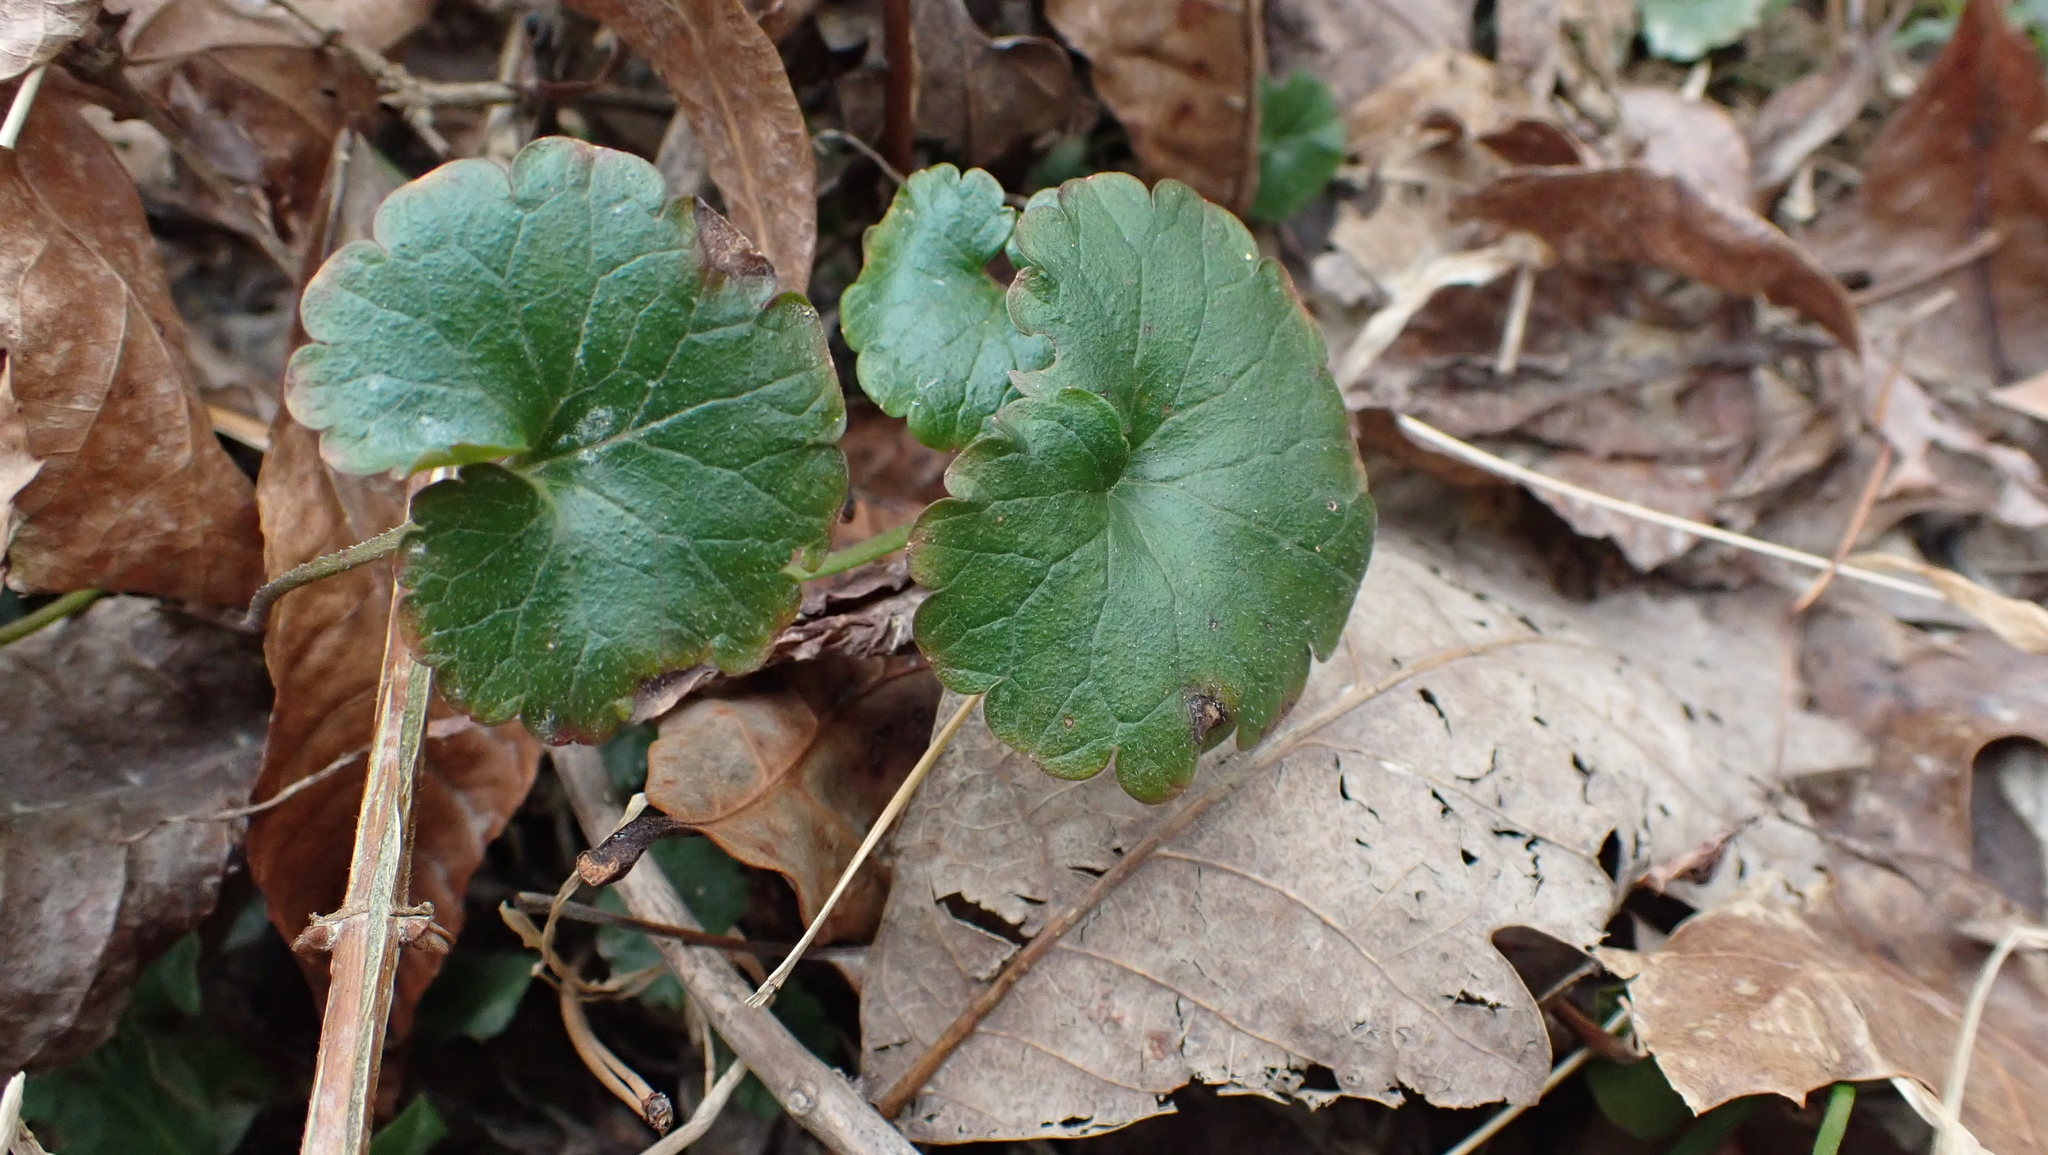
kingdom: Plantae
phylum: Tracheophyta
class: Magnoliopsida
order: Lamiales
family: Lamiaceae
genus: Glechoma
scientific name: Glechoma hederacea
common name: Ground ivy
